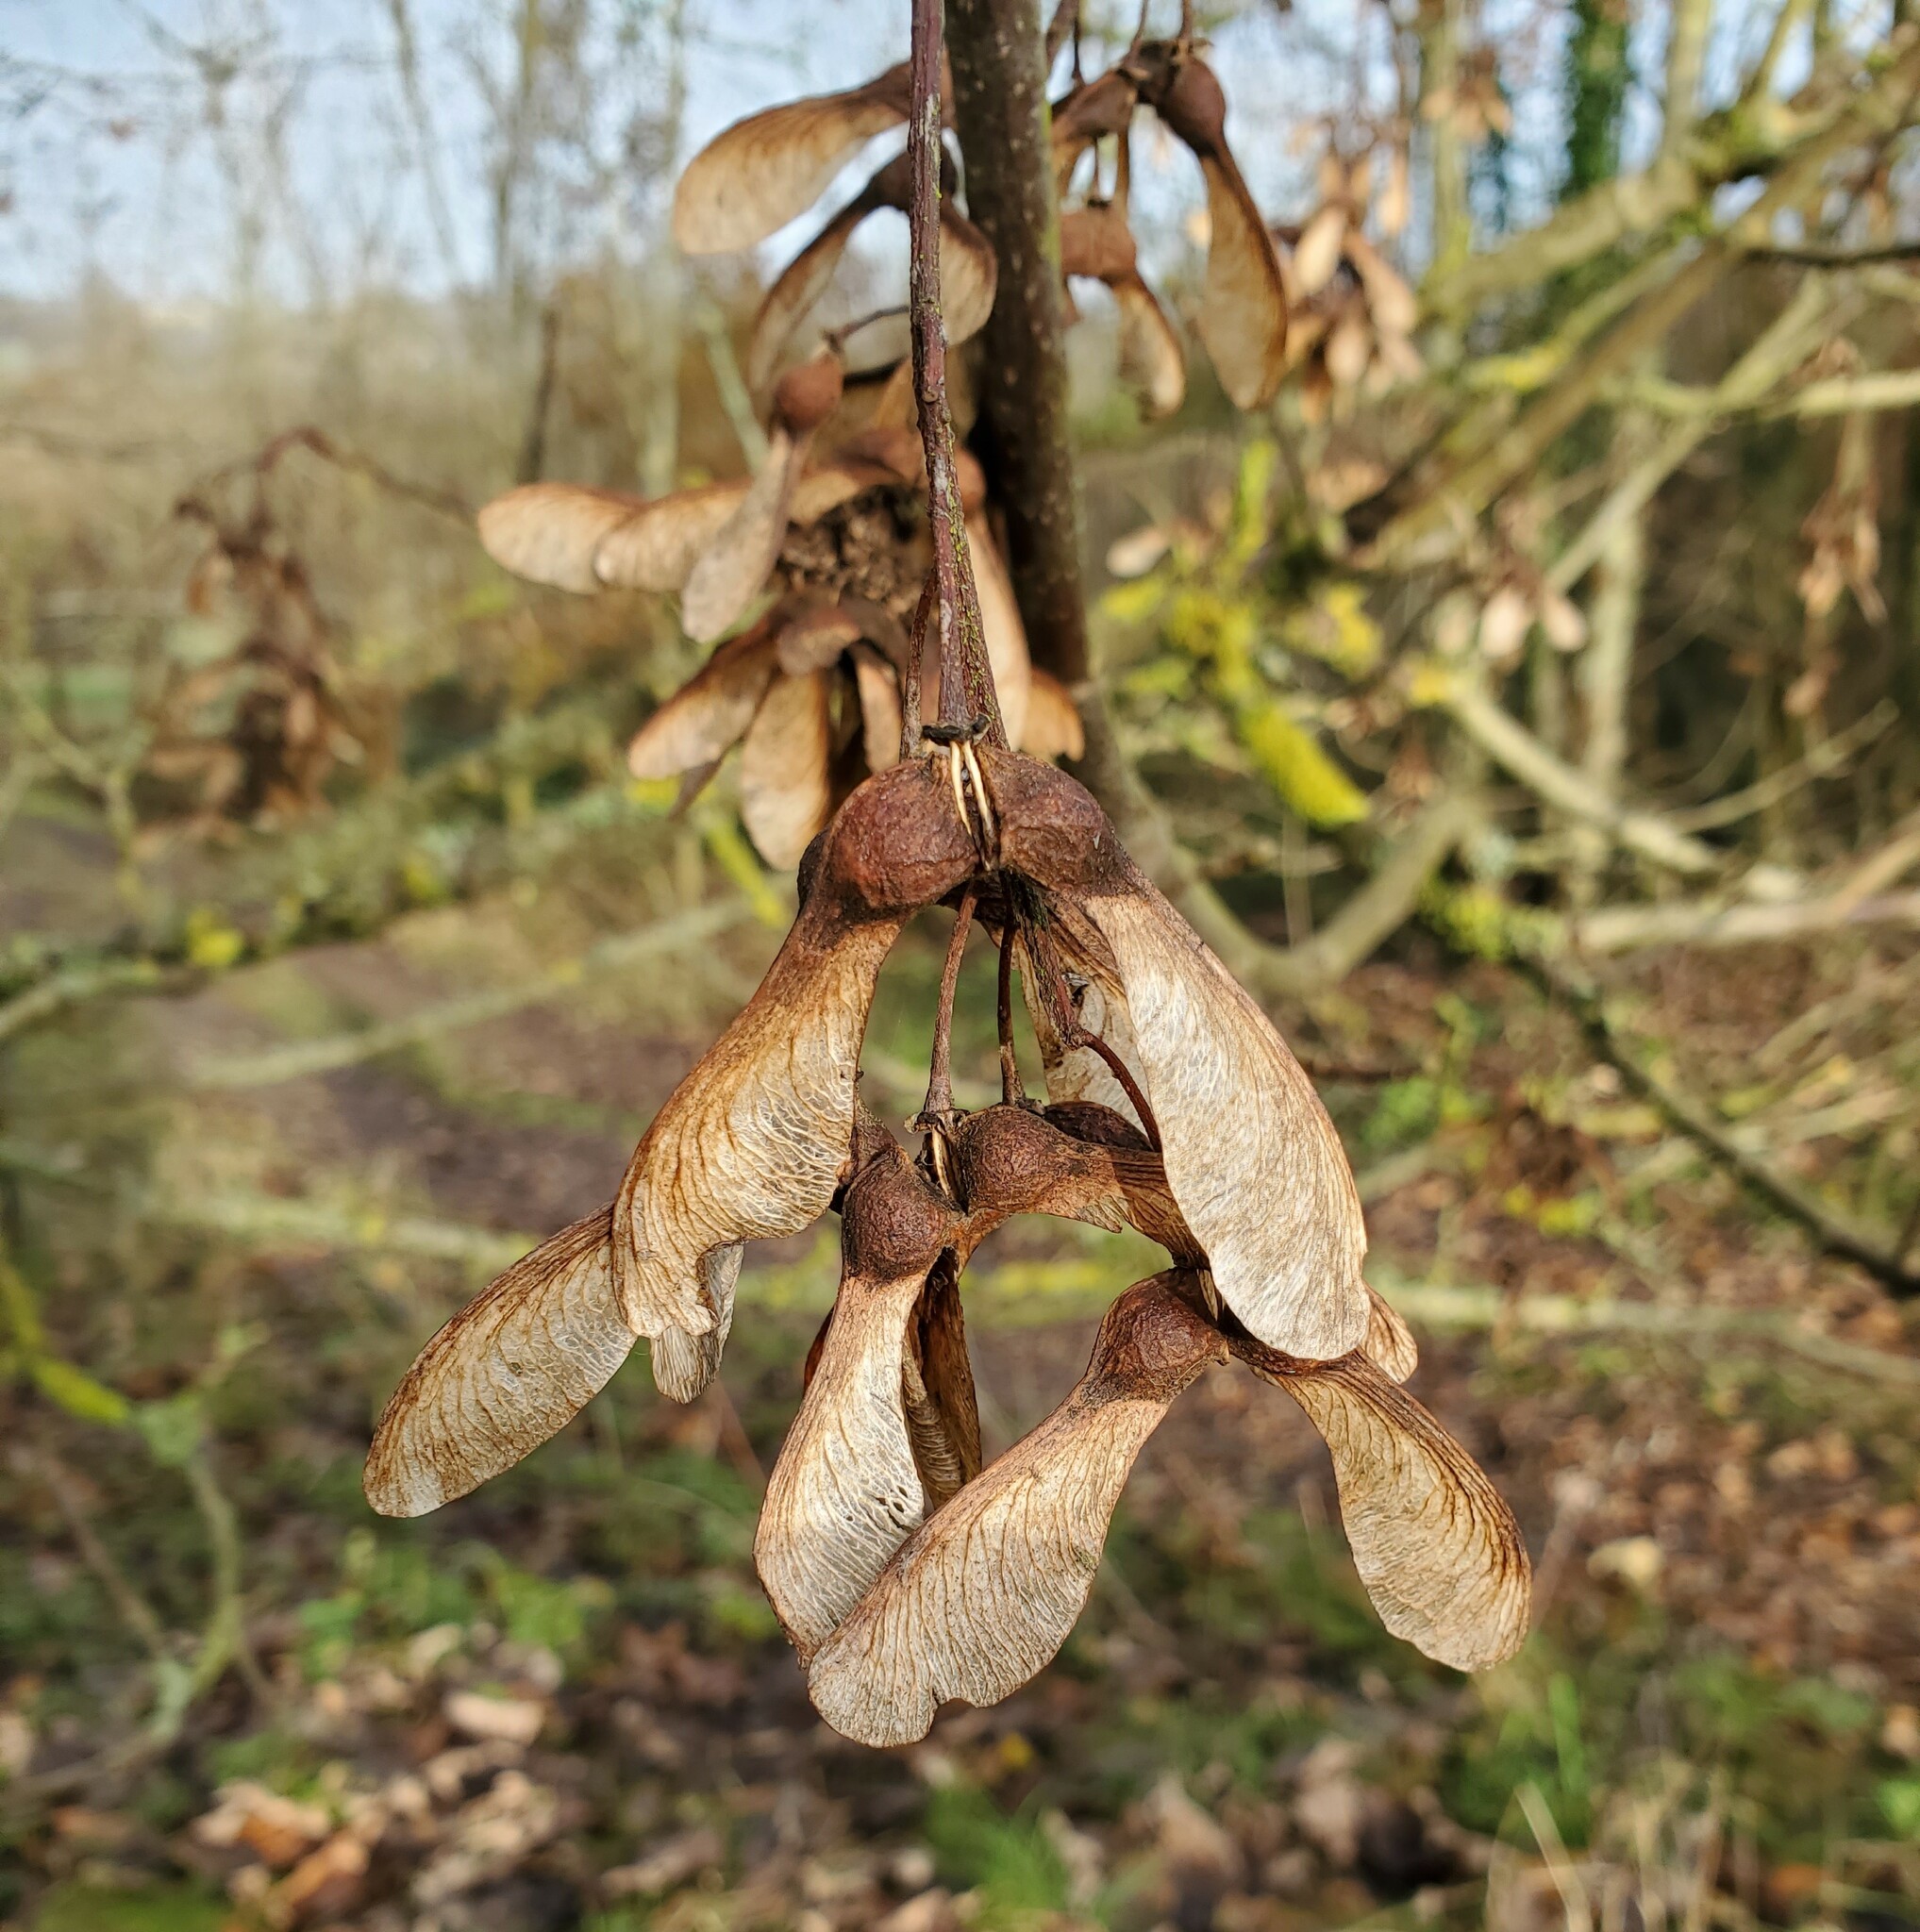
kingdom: Plantae
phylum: Tracheophyta
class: Magnoliopsida
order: Sapindales
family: Sapindaceae
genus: Acer
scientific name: Acer pseudoplatanus
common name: Sycamore
